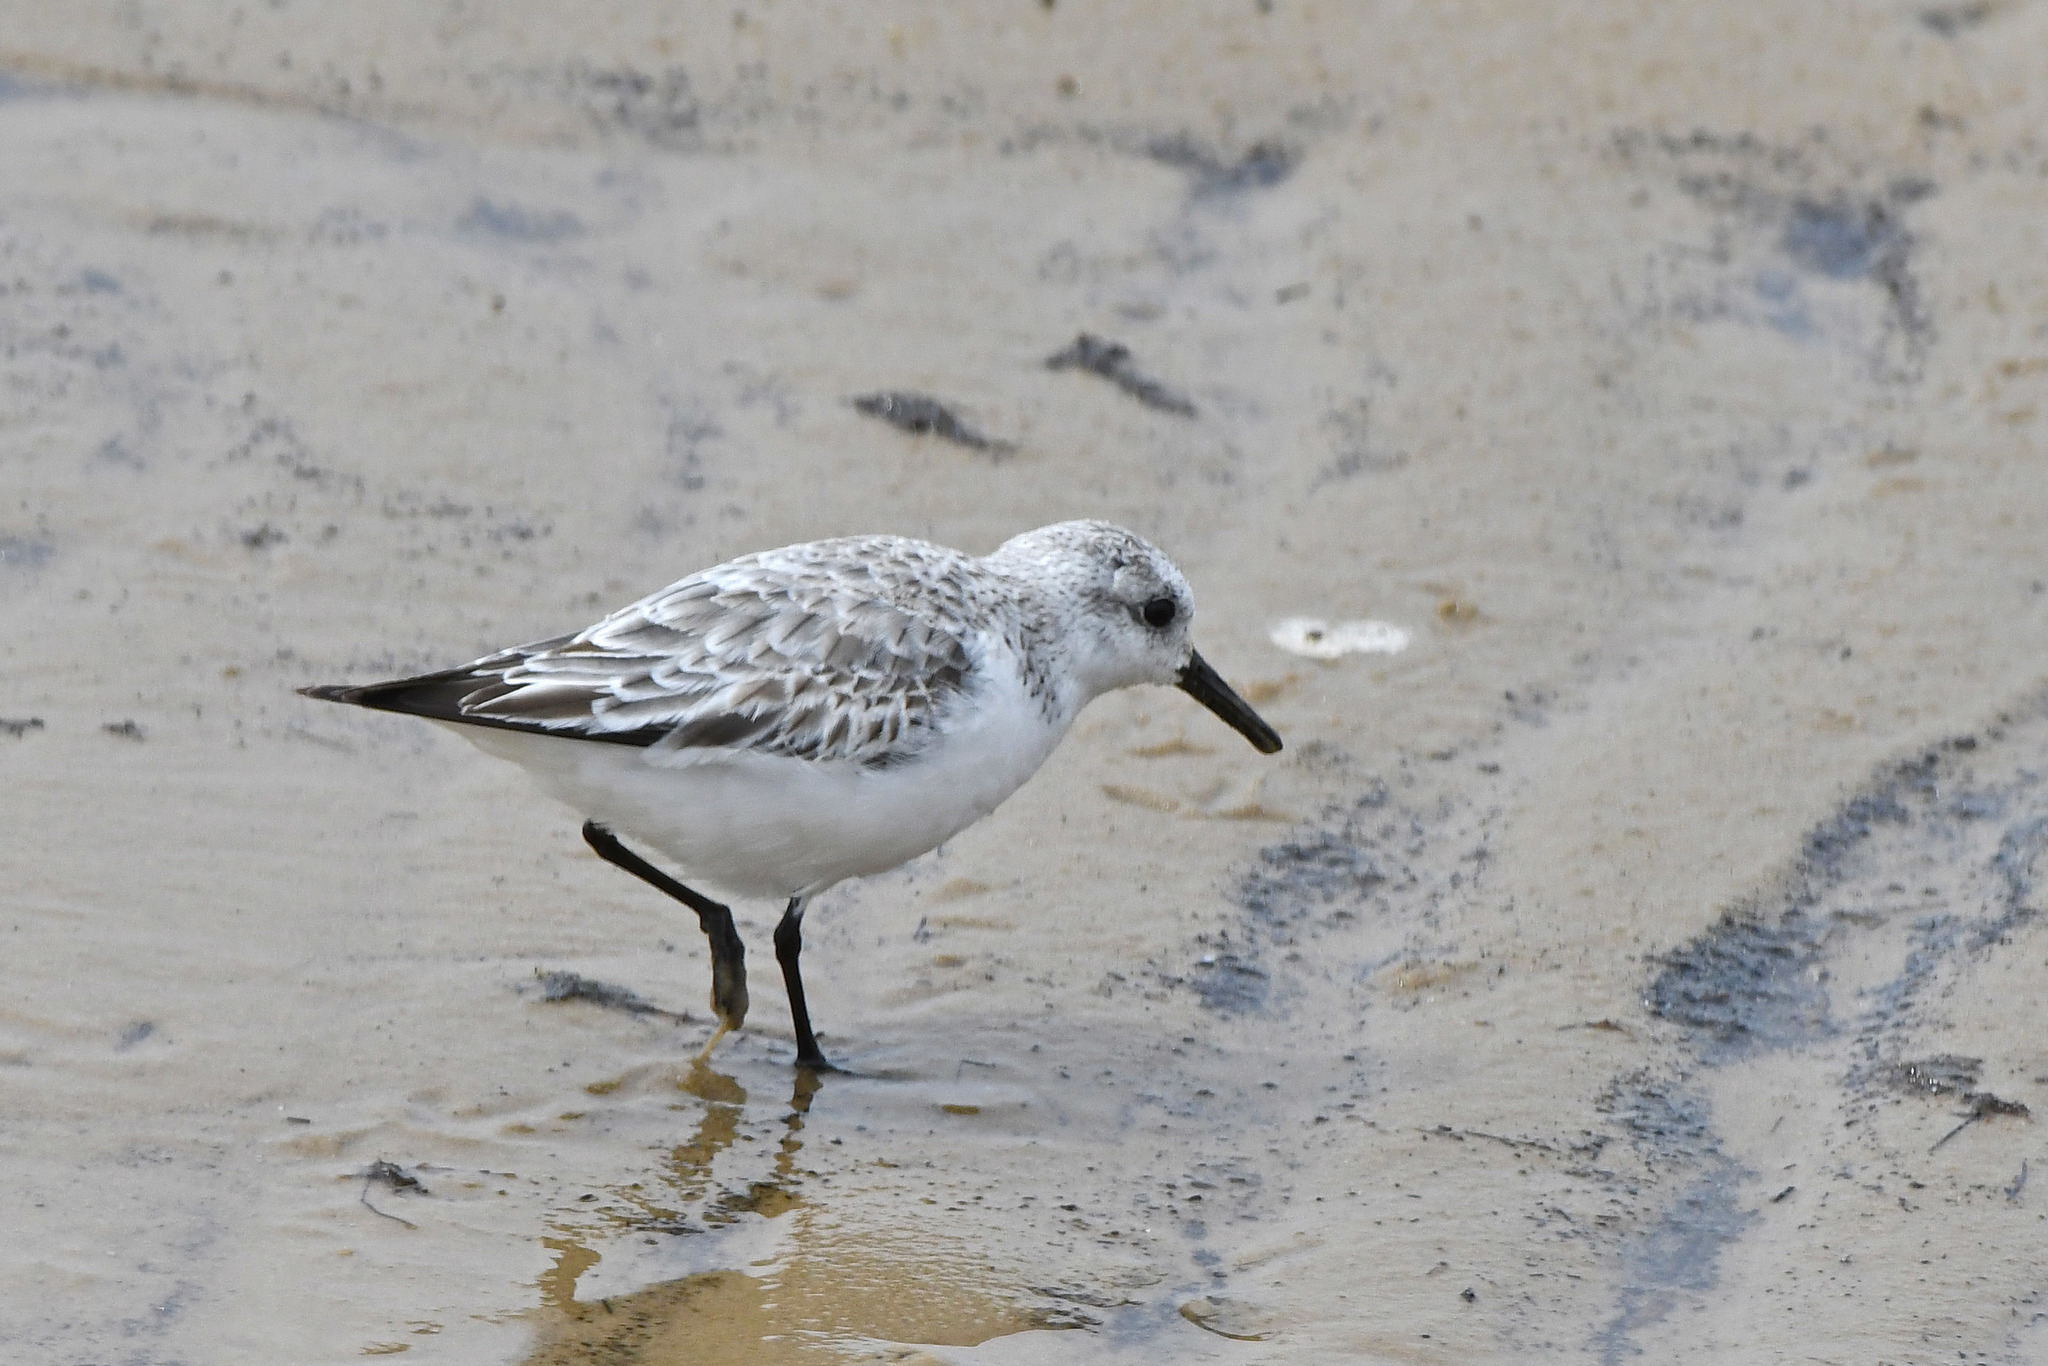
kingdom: Animalia
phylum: Chordata
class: Aves
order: Charadriiformes
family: Scolopacidae
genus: Calidris
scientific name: Calidris alba
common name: Sanderling
